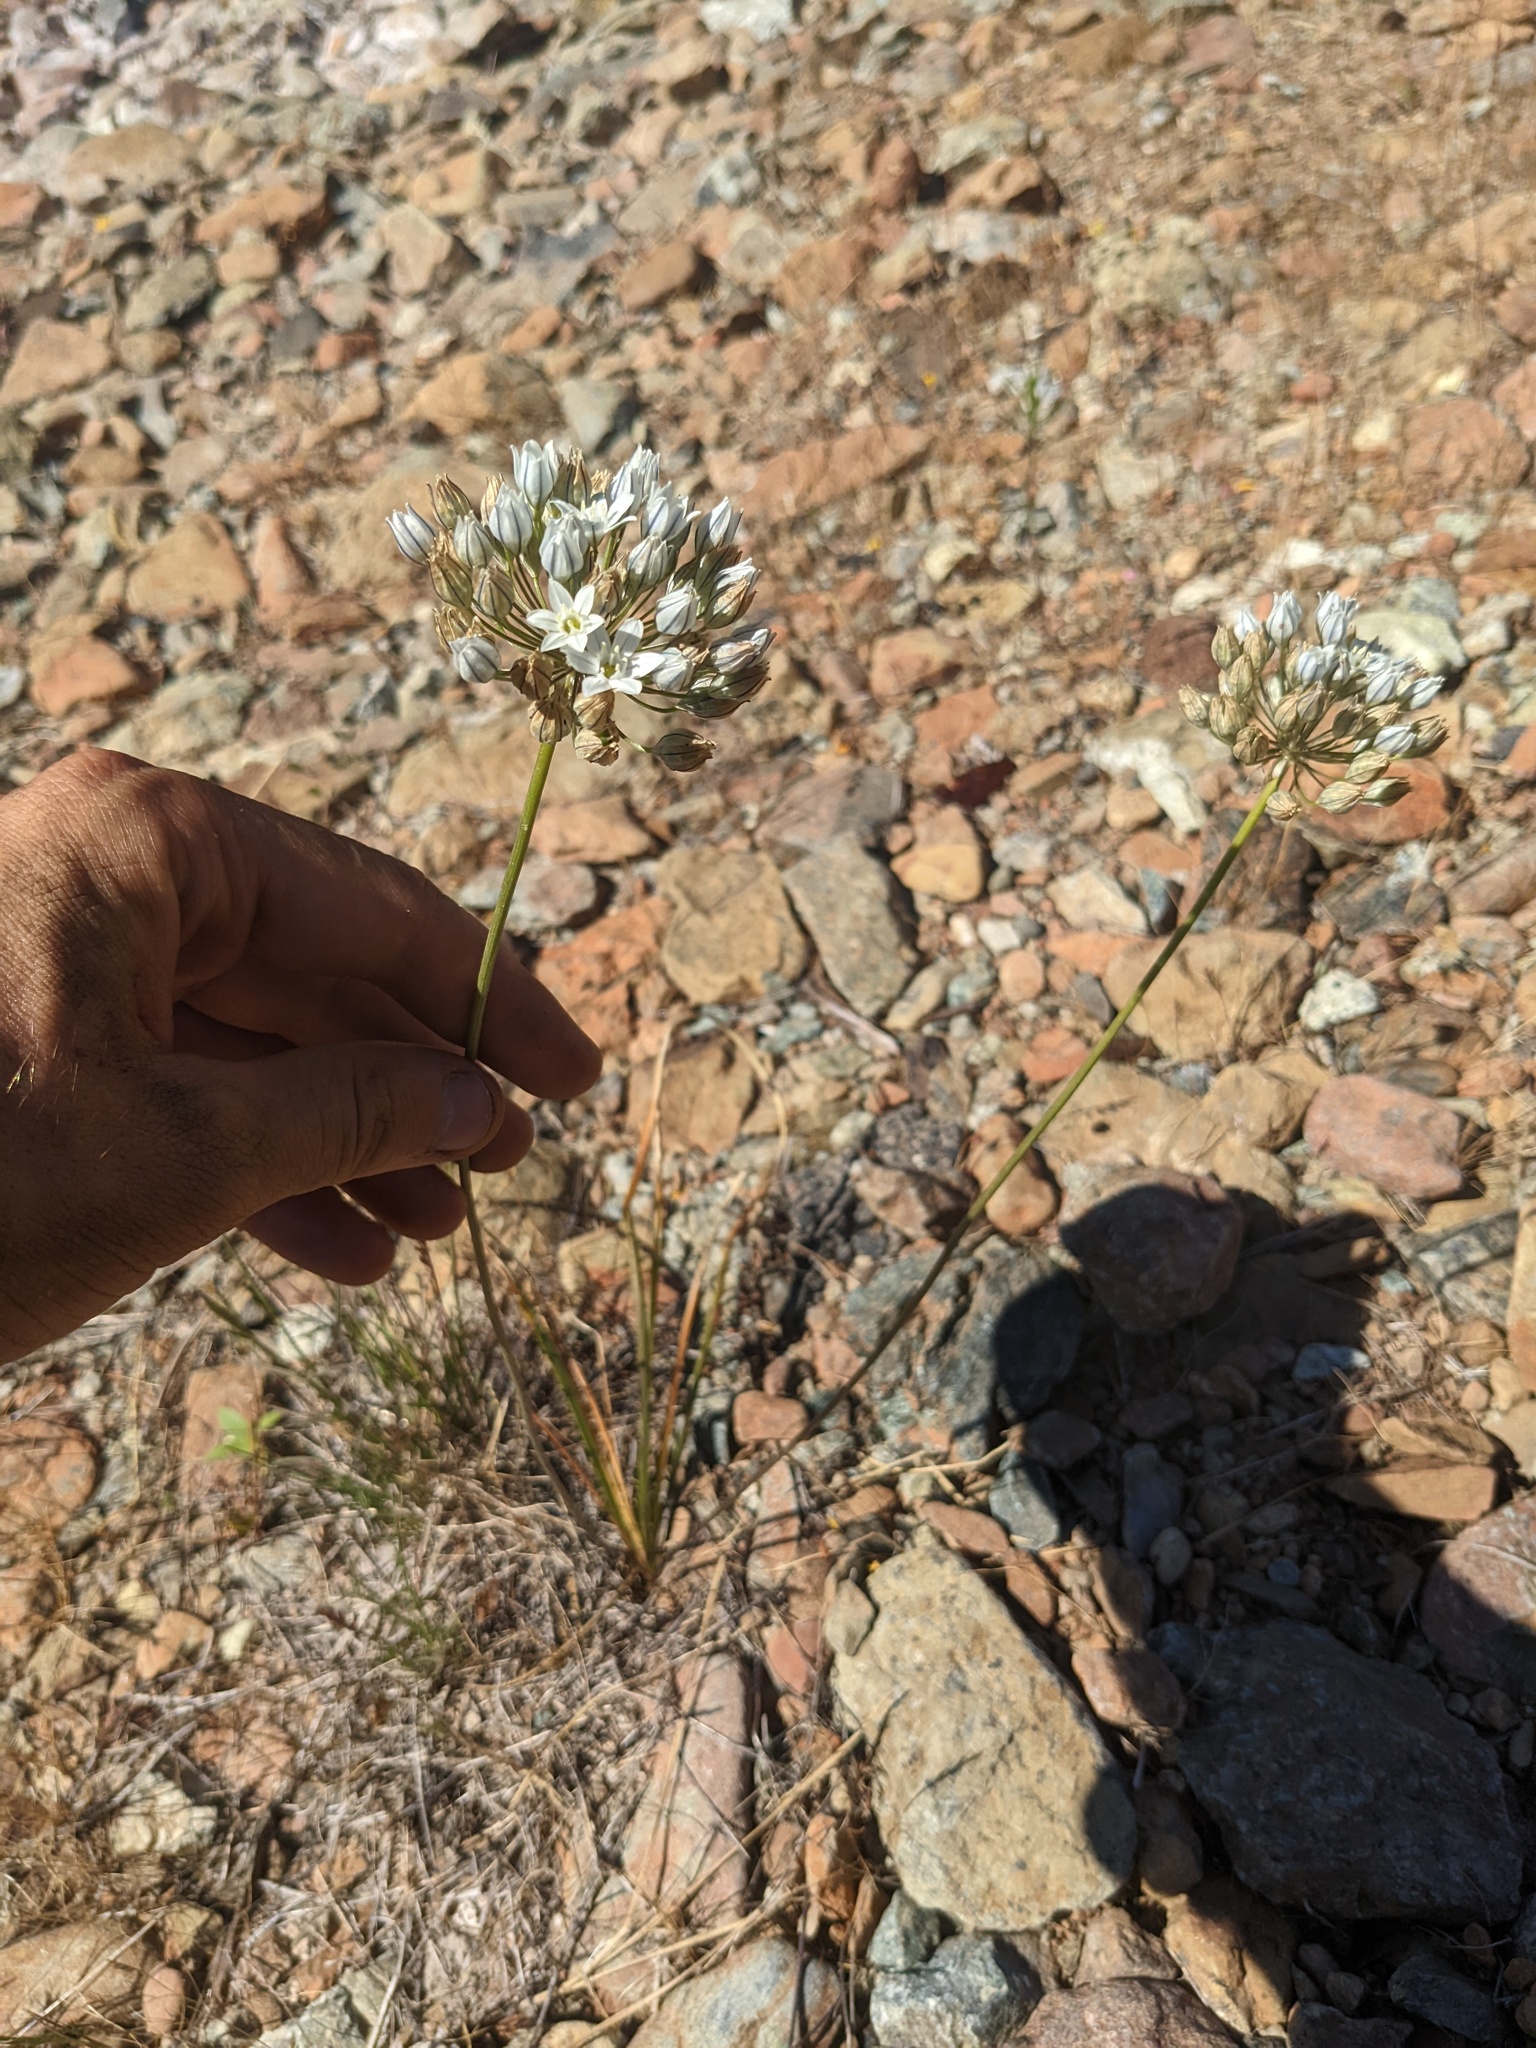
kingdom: Plantae
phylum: Tracheophyta
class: Liliopsida
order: Asparagales
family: Asparagaceae
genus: Triteleia
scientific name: Triteleia hyacinthina
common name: White brodiaea
